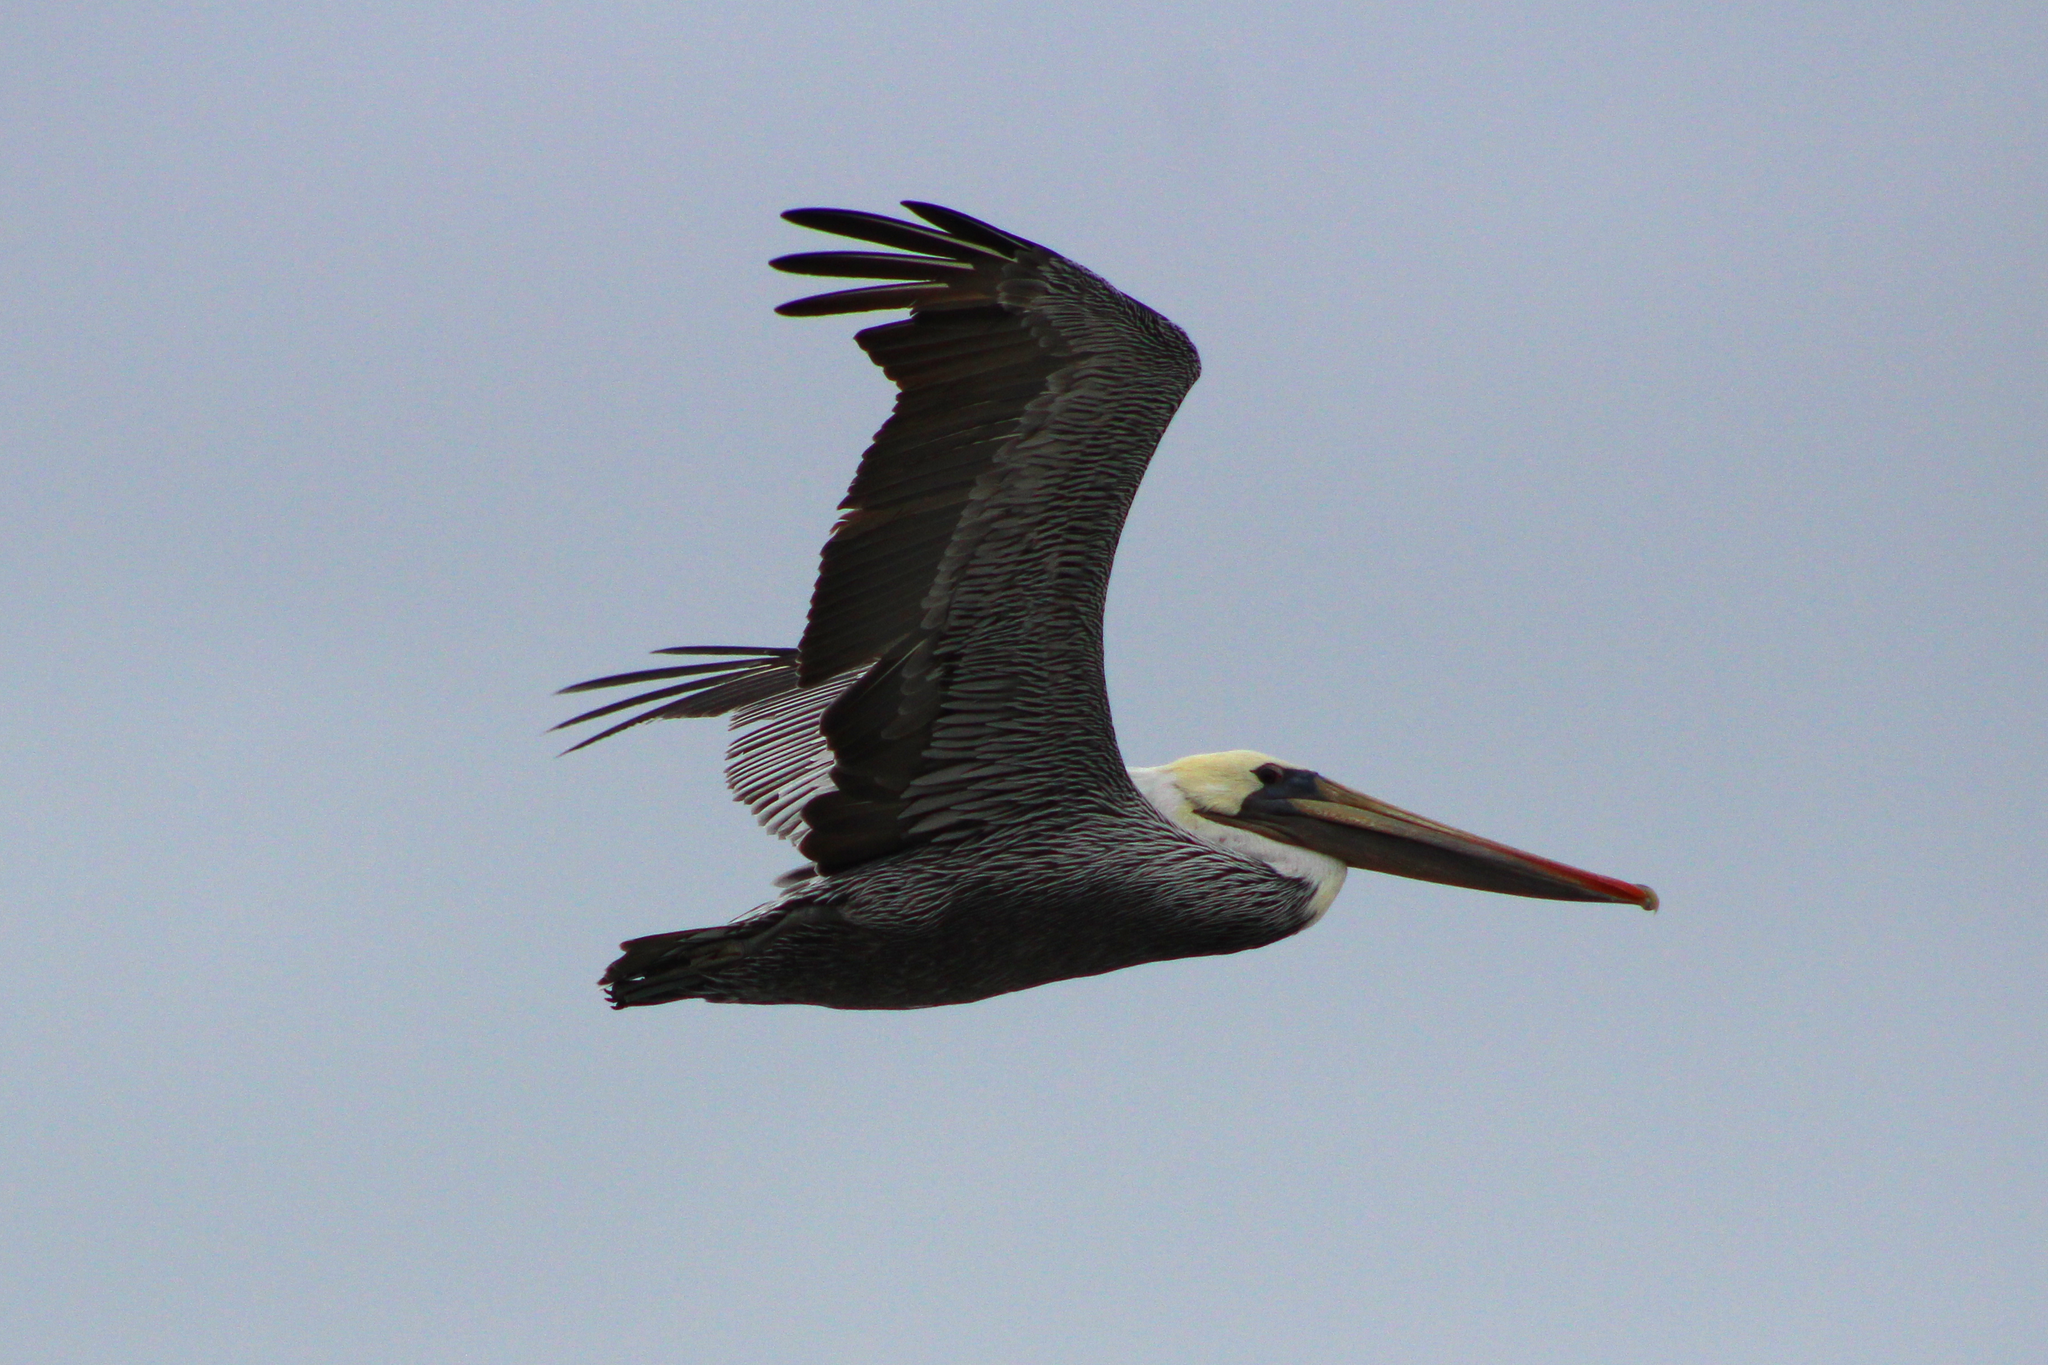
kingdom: Animalia
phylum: Chordata
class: Aves
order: Pelecaniformes
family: Pelecanidae
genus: Pelecanus
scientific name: Pelecanus occidentalis
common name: Brown pelican
